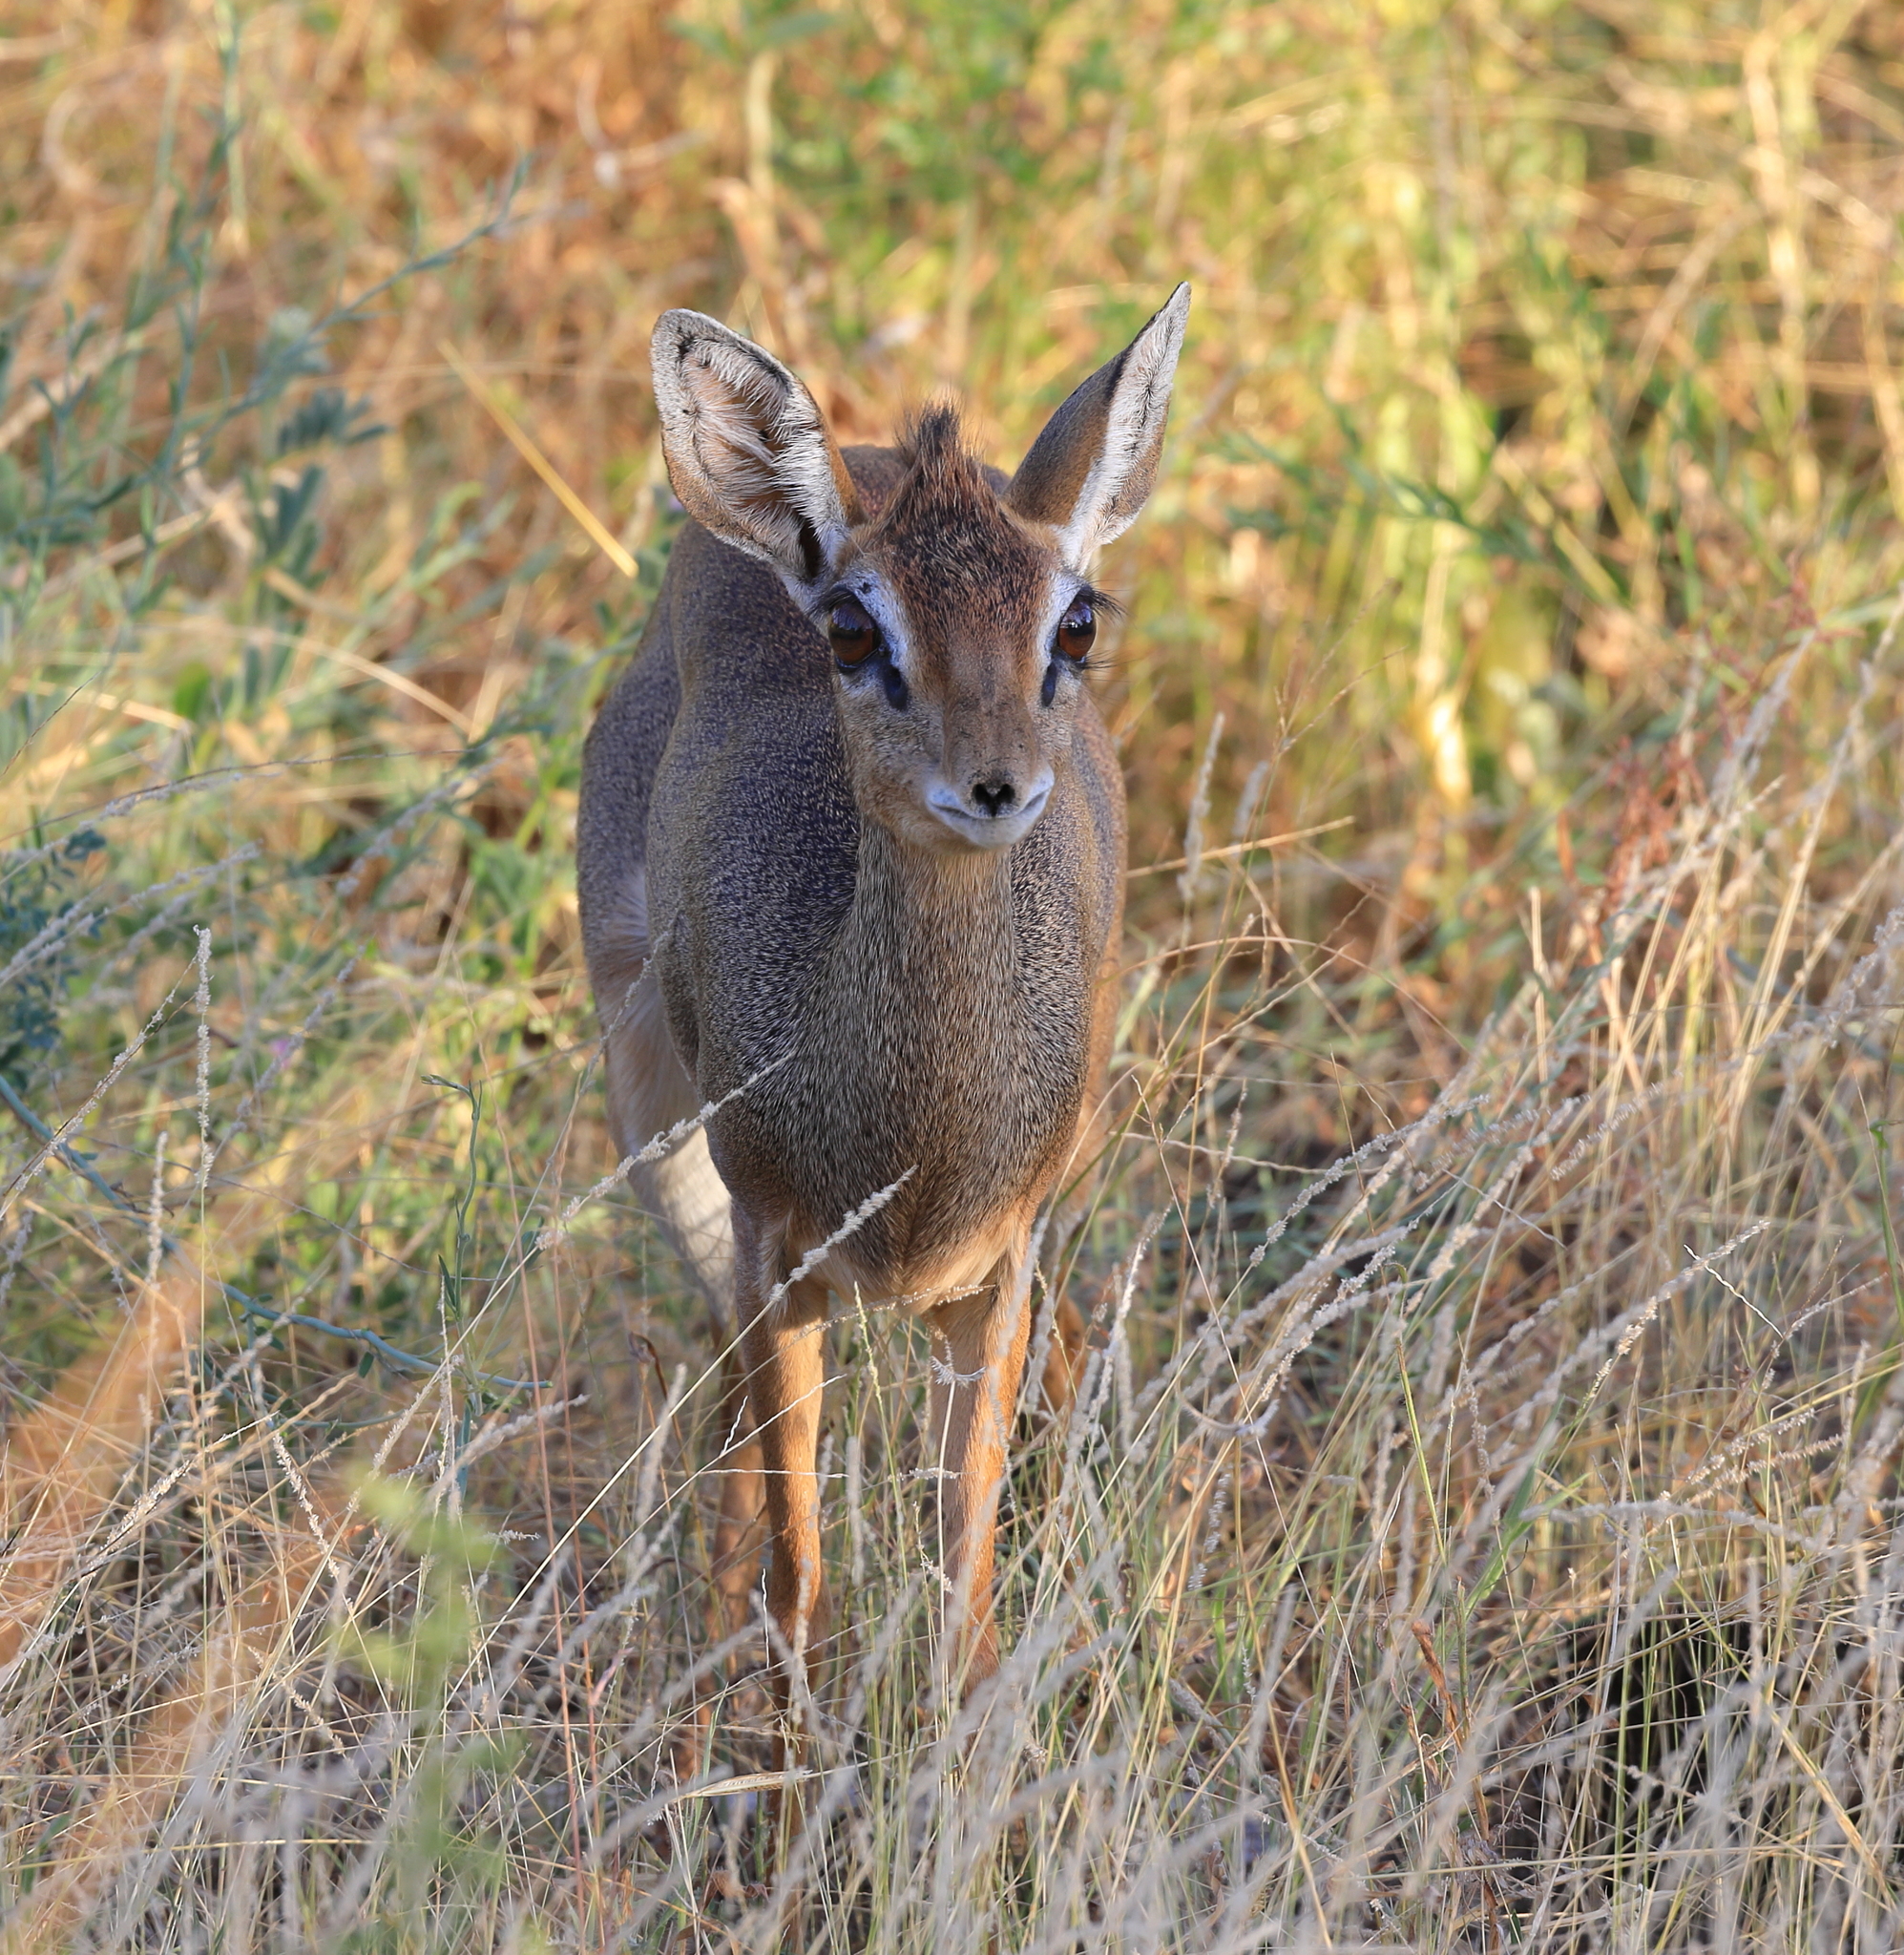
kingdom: Animalia
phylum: Chordata
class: Mammalia
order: Artiodactyla
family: Bovidae
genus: Madoqua
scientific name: Madoqua
